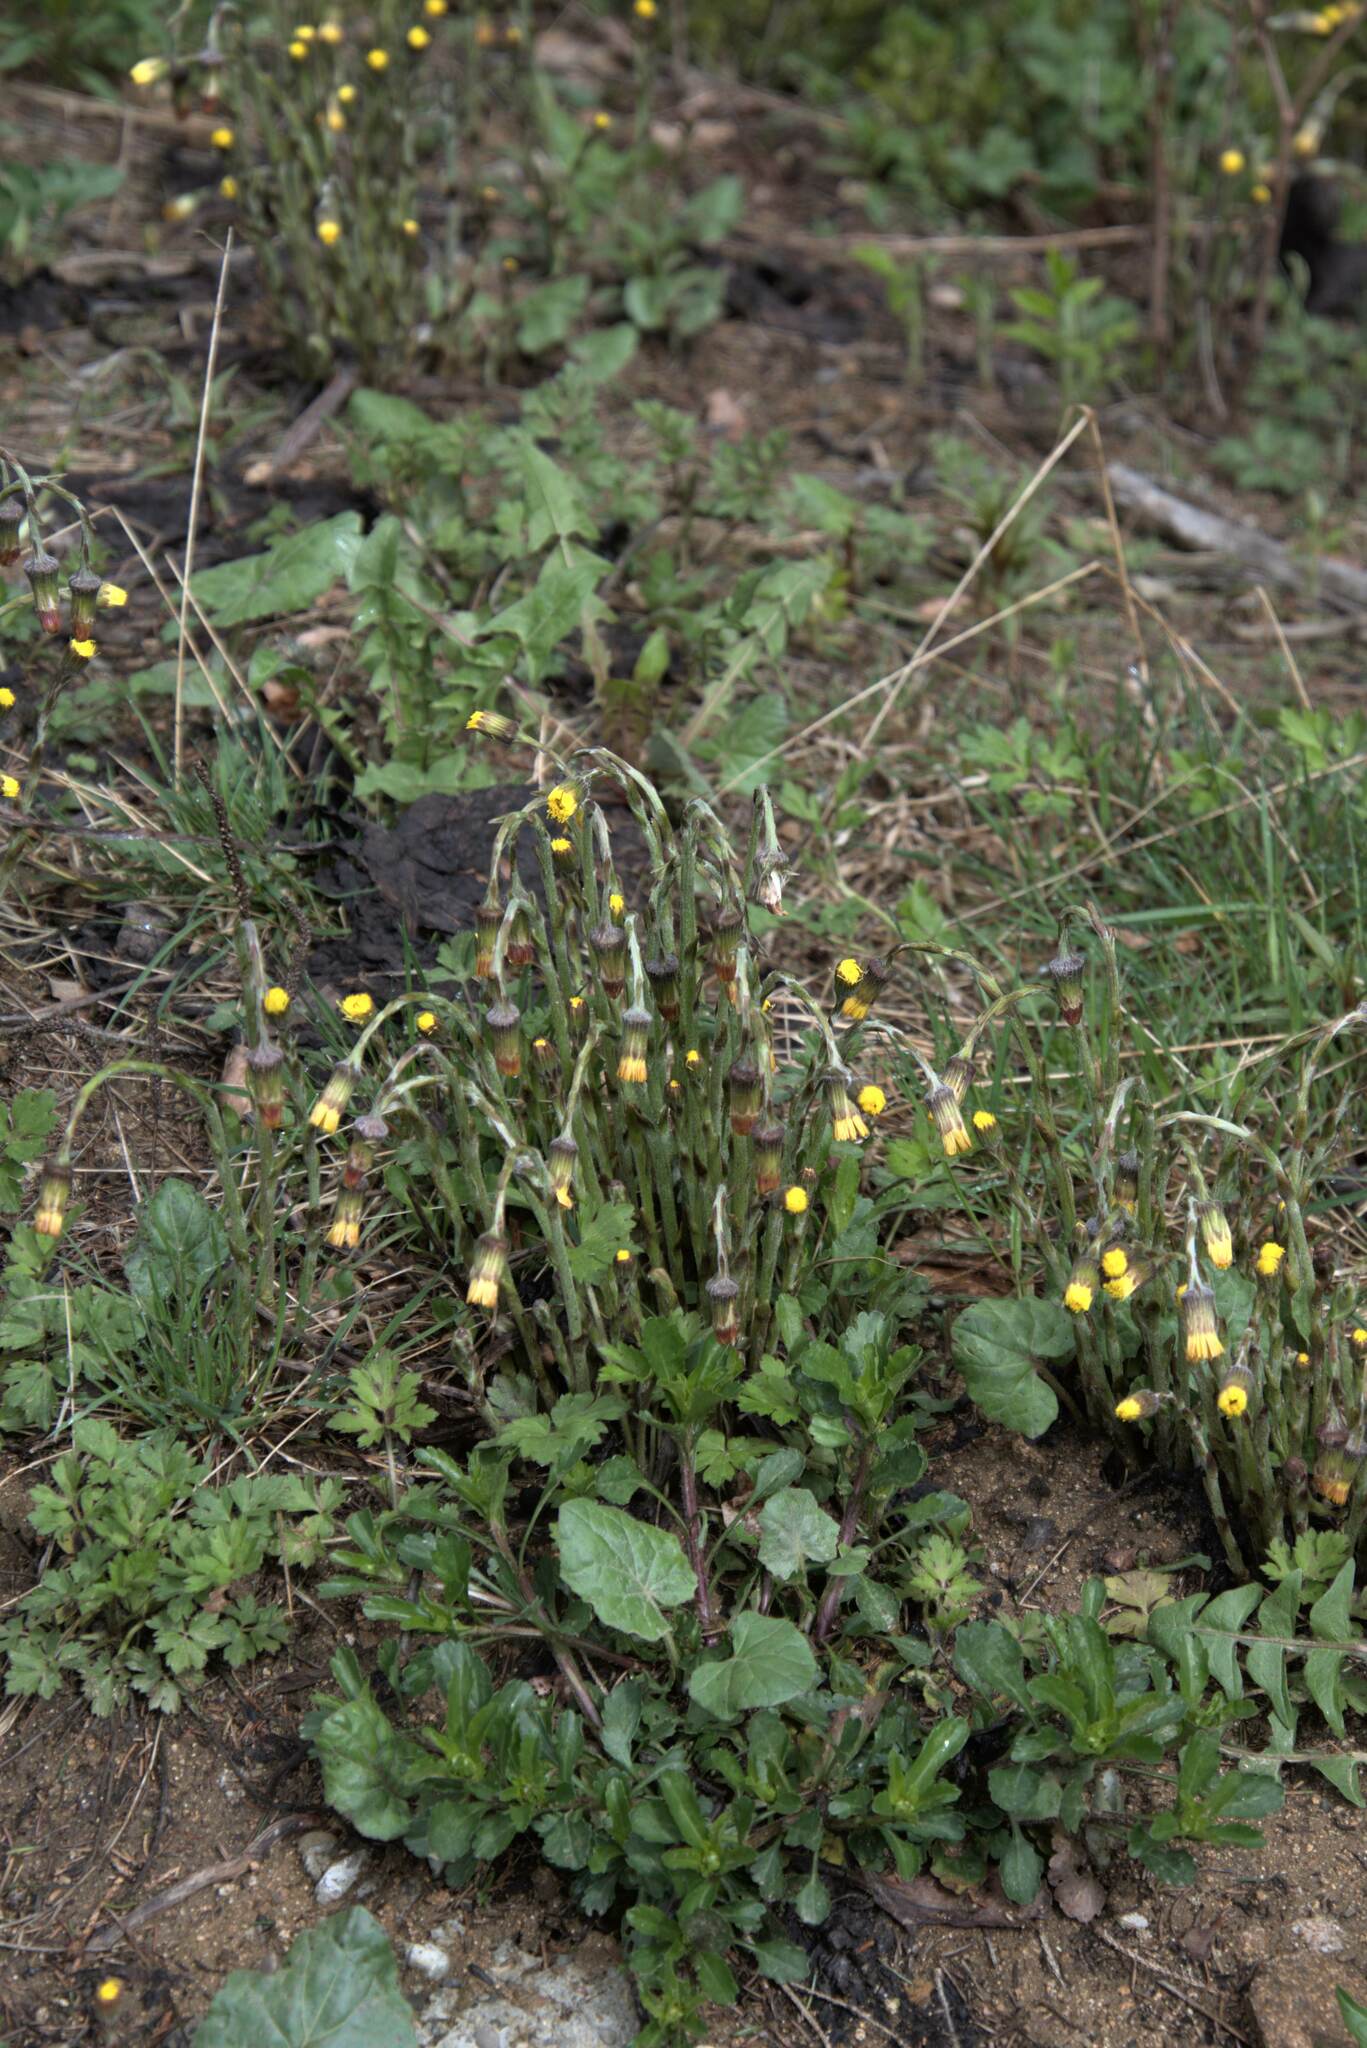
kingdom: Plantae
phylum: Tracheophyta
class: Magnoliopsida
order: Asterales
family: Asteraceae
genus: Tussilago
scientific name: Tussilago farfara
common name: Coltsfoot
